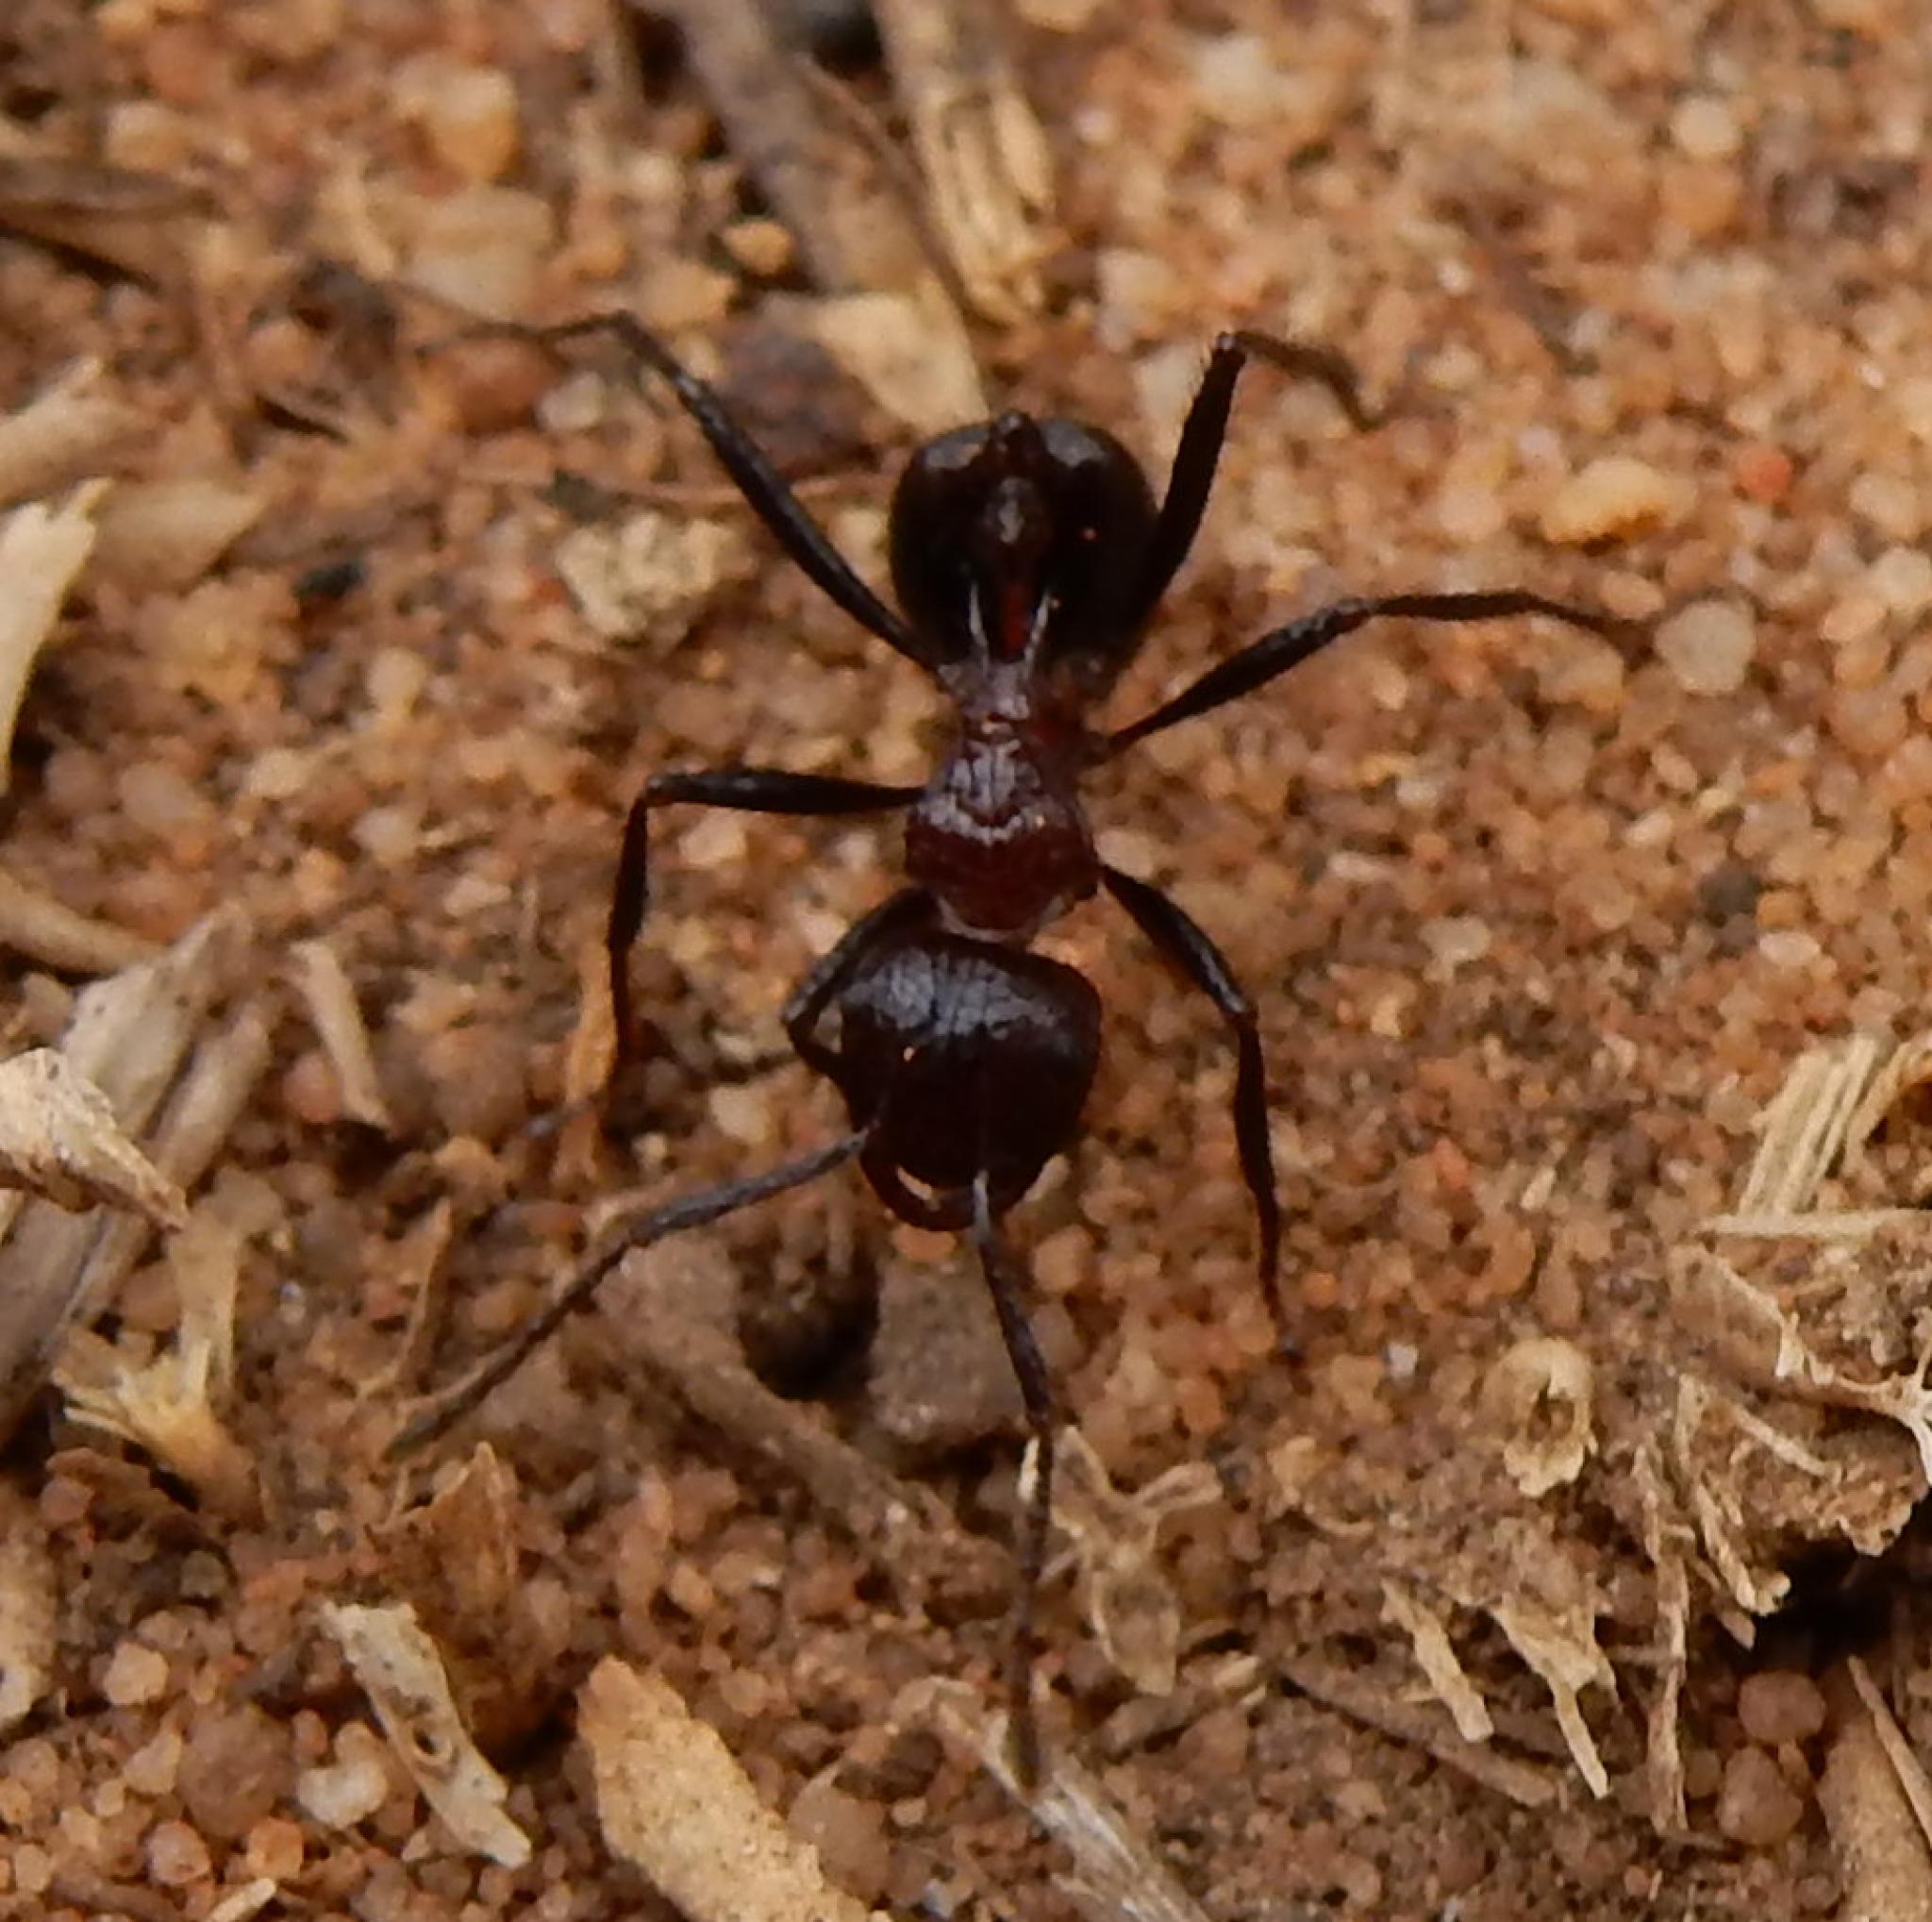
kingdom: Animalia
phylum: Arthropoda
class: Insecta
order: Hymenoptera
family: Formicidae
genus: Myrmicaria
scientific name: Myrmicaria natalensis
